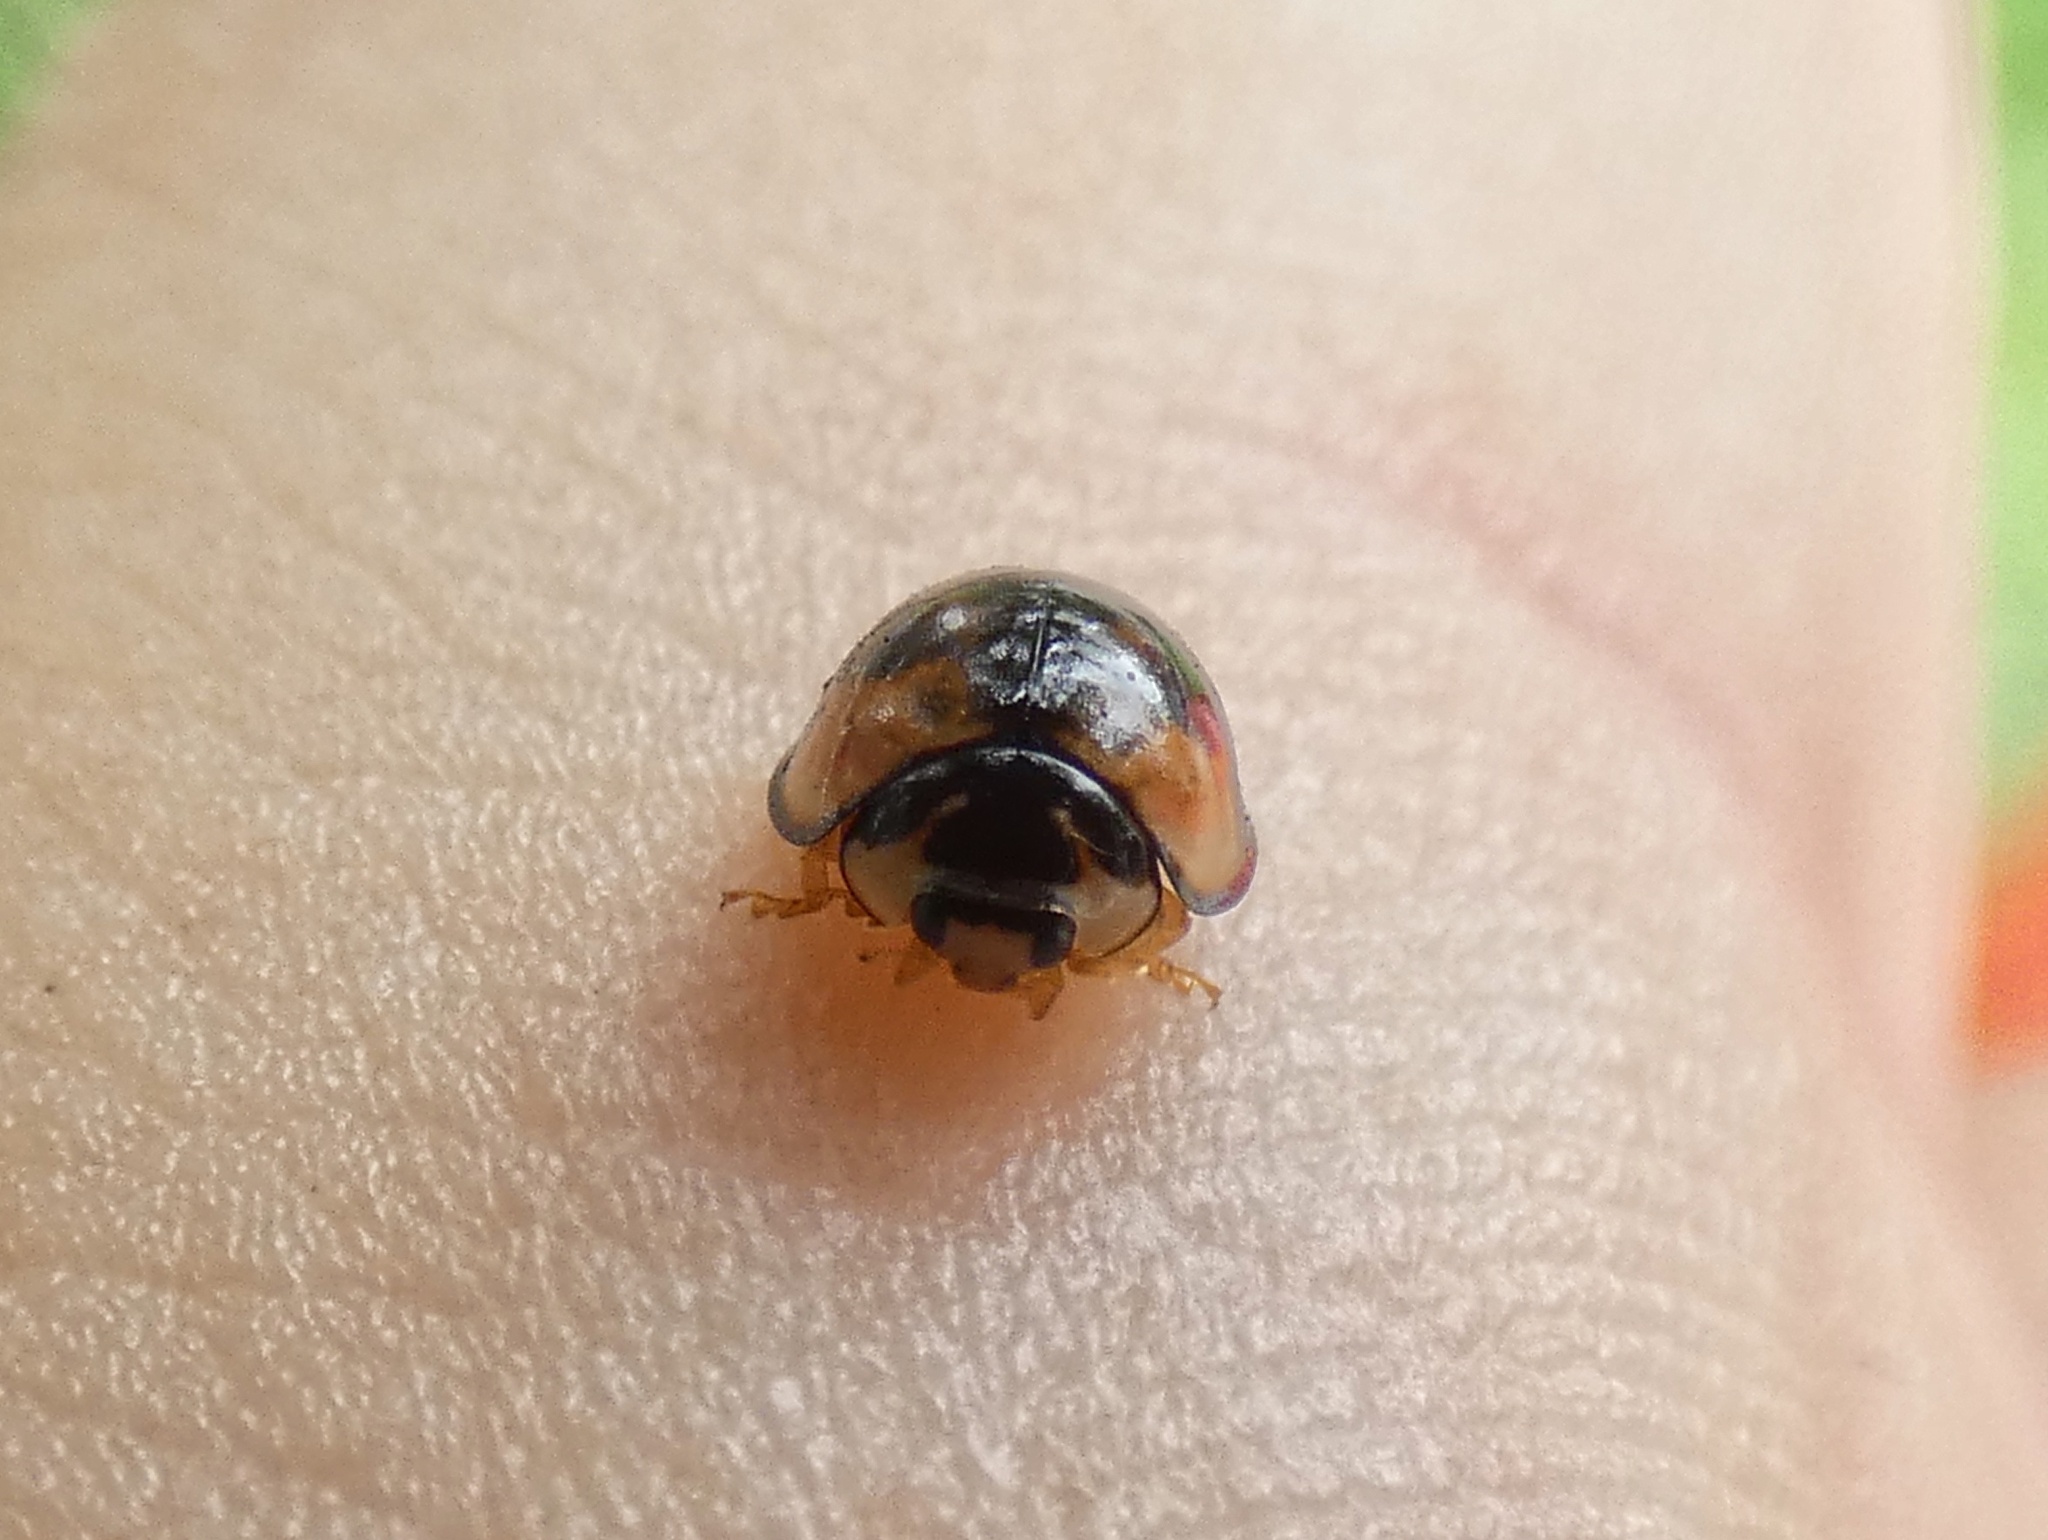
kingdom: Animalia
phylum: Arthropoda
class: Insecta
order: Coleoptera
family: Coccinellidae
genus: Cheilomenes
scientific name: Cheilomenes sexmaculata
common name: Ladybird beetle
